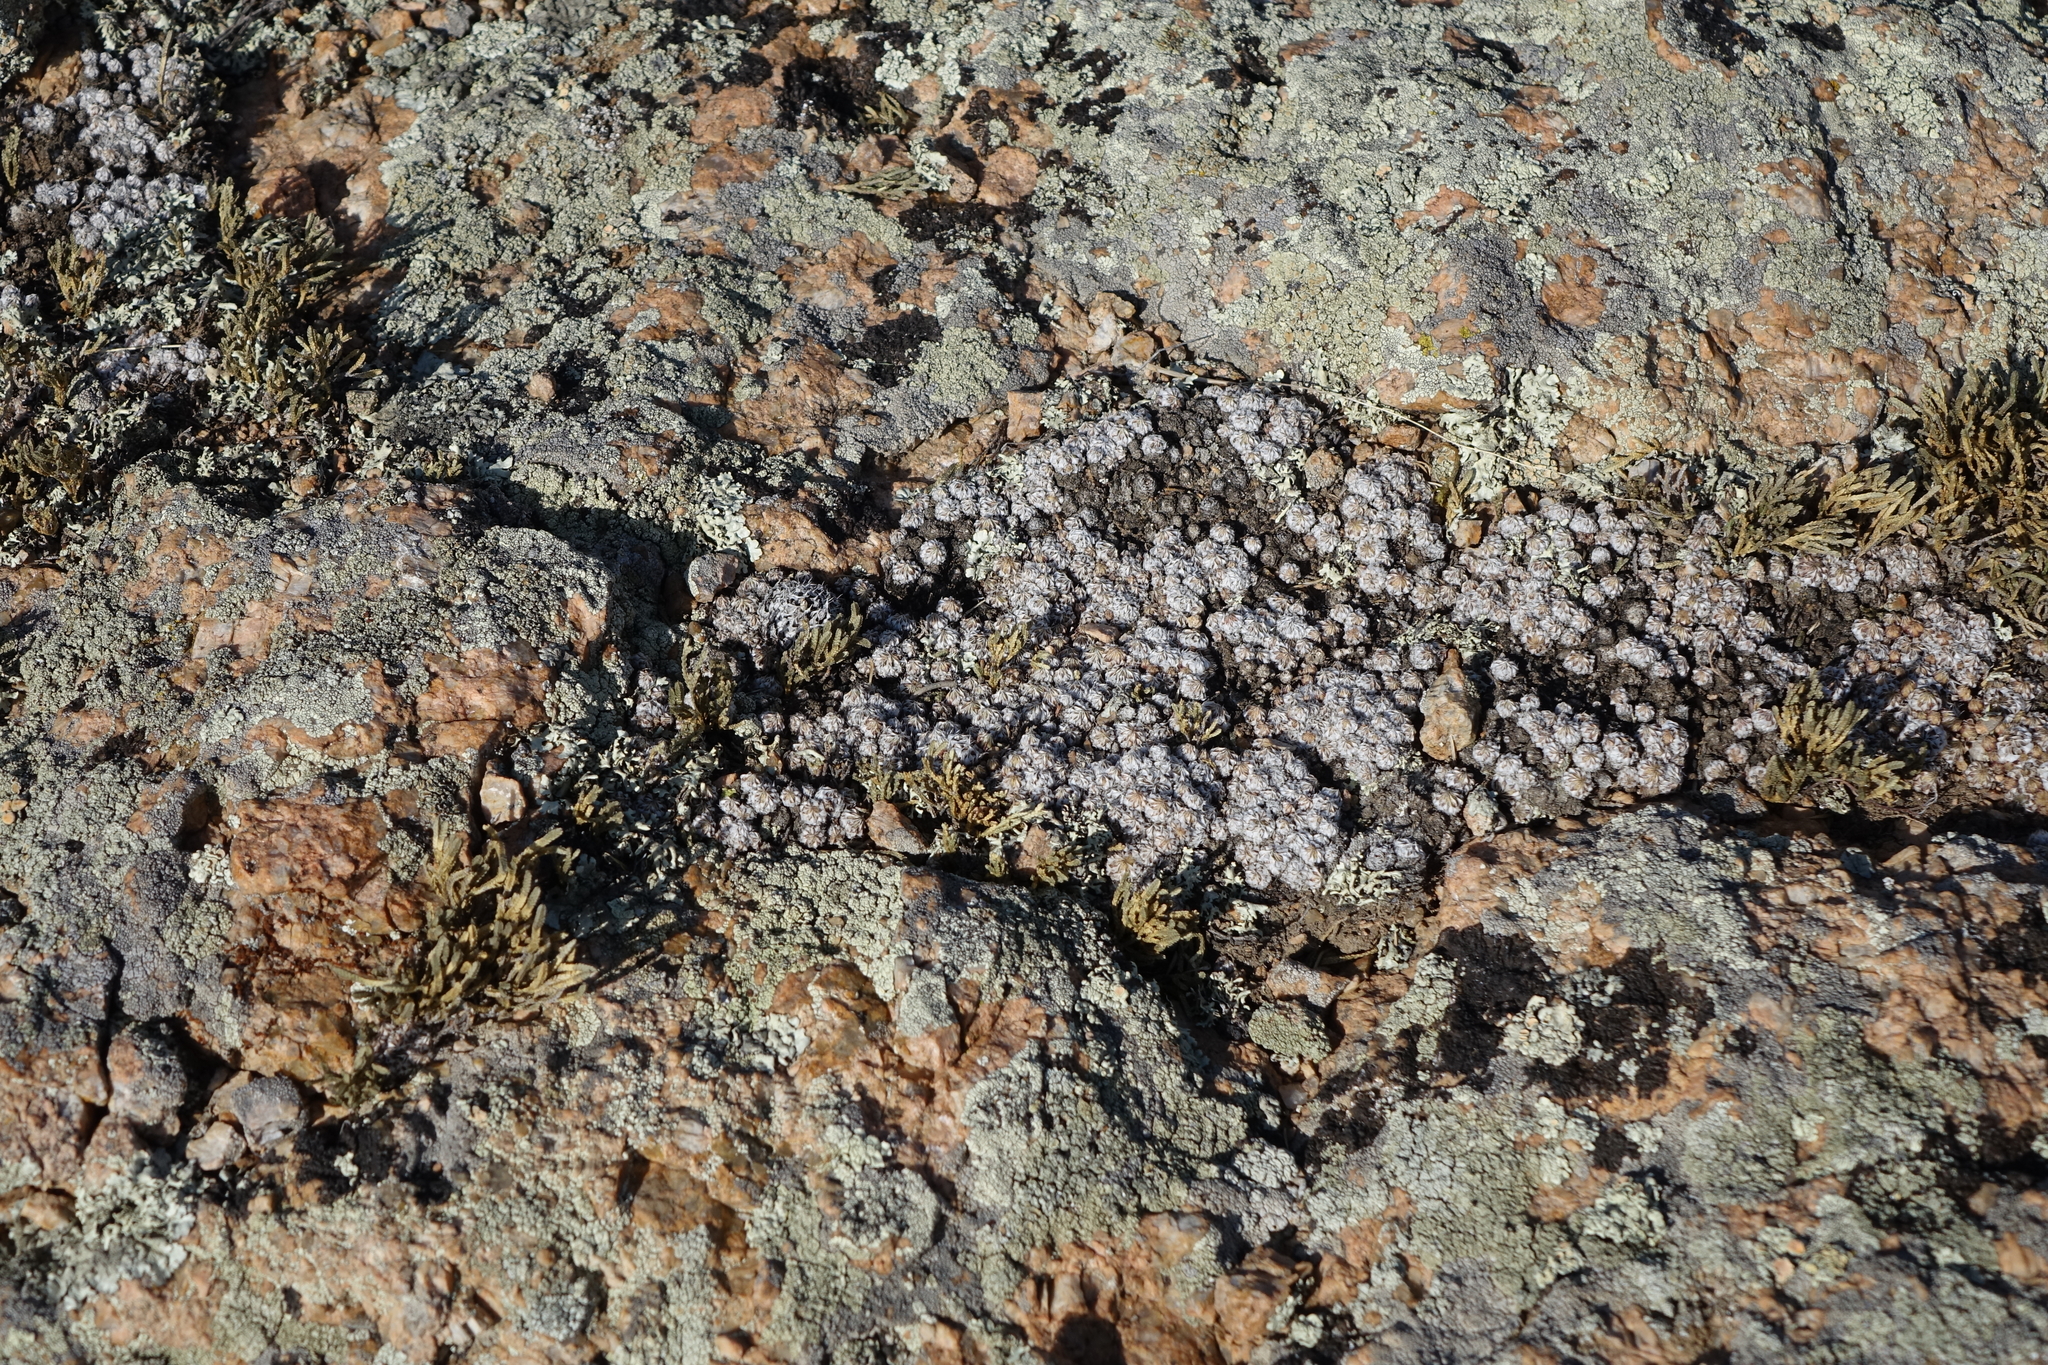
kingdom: Plantae
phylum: Tracheophyta
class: Magnoliopsida
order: Asterales
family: Asteraceae
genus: Artemisia
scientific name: Artemisia frigida
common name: Prairie sagewort
